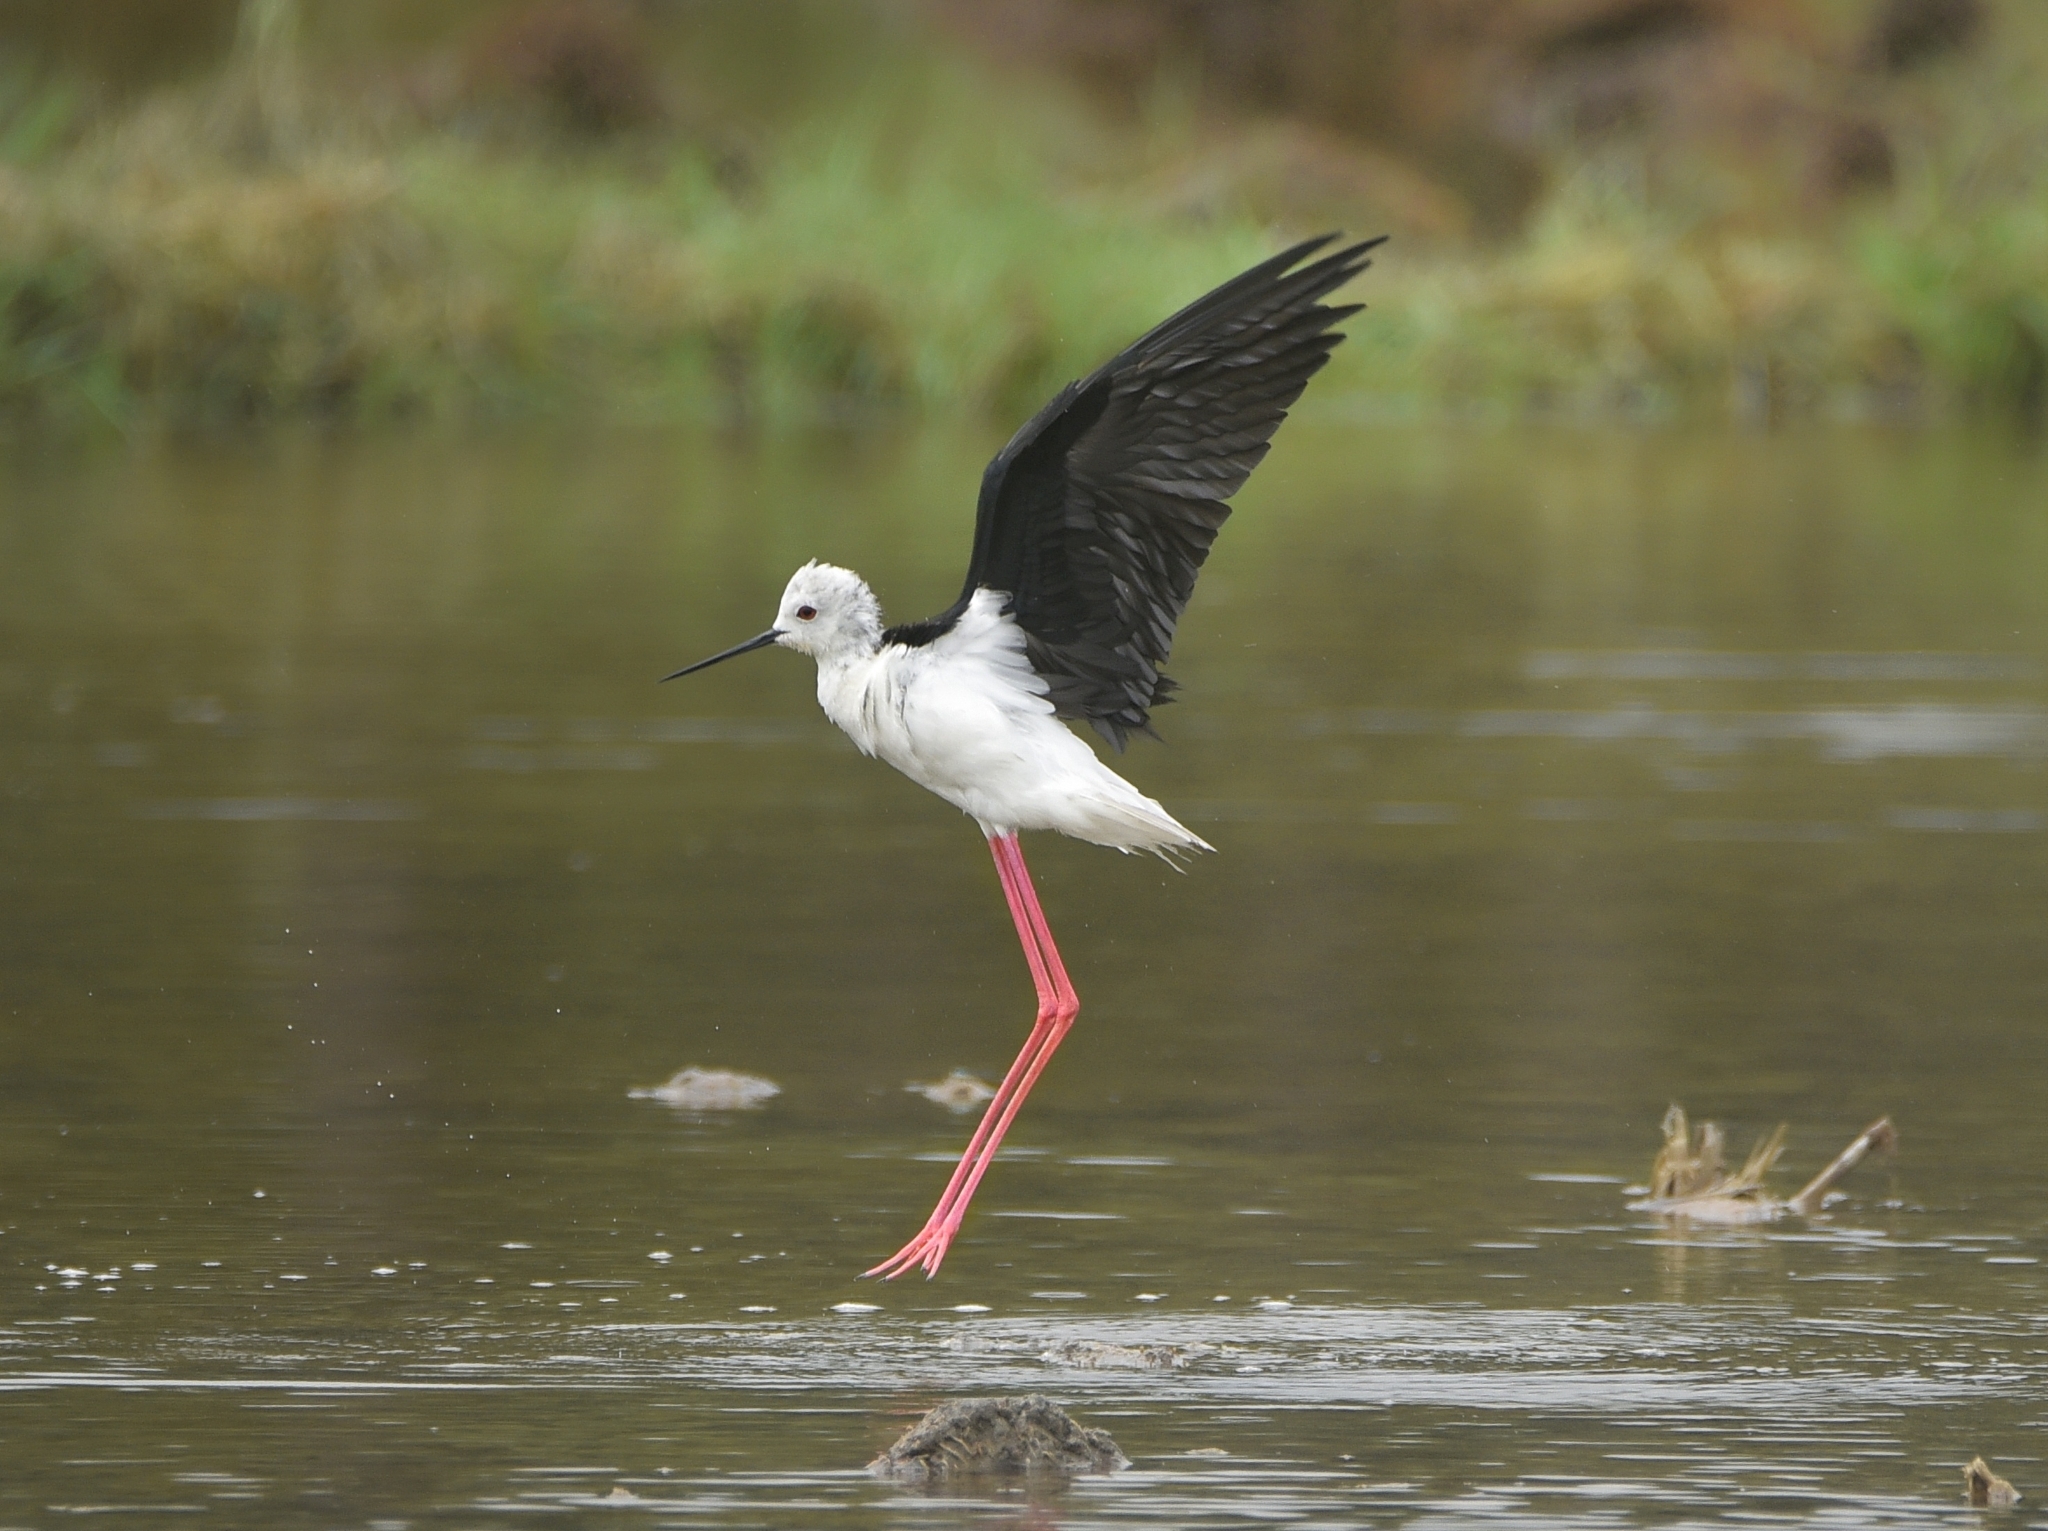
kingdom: Animalia
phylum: Chordata
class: Aves
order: Charadriiformes
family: Recurvirostridae
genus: Himantopus
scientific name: Himantopus himantopus
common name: Black-winged stilt
